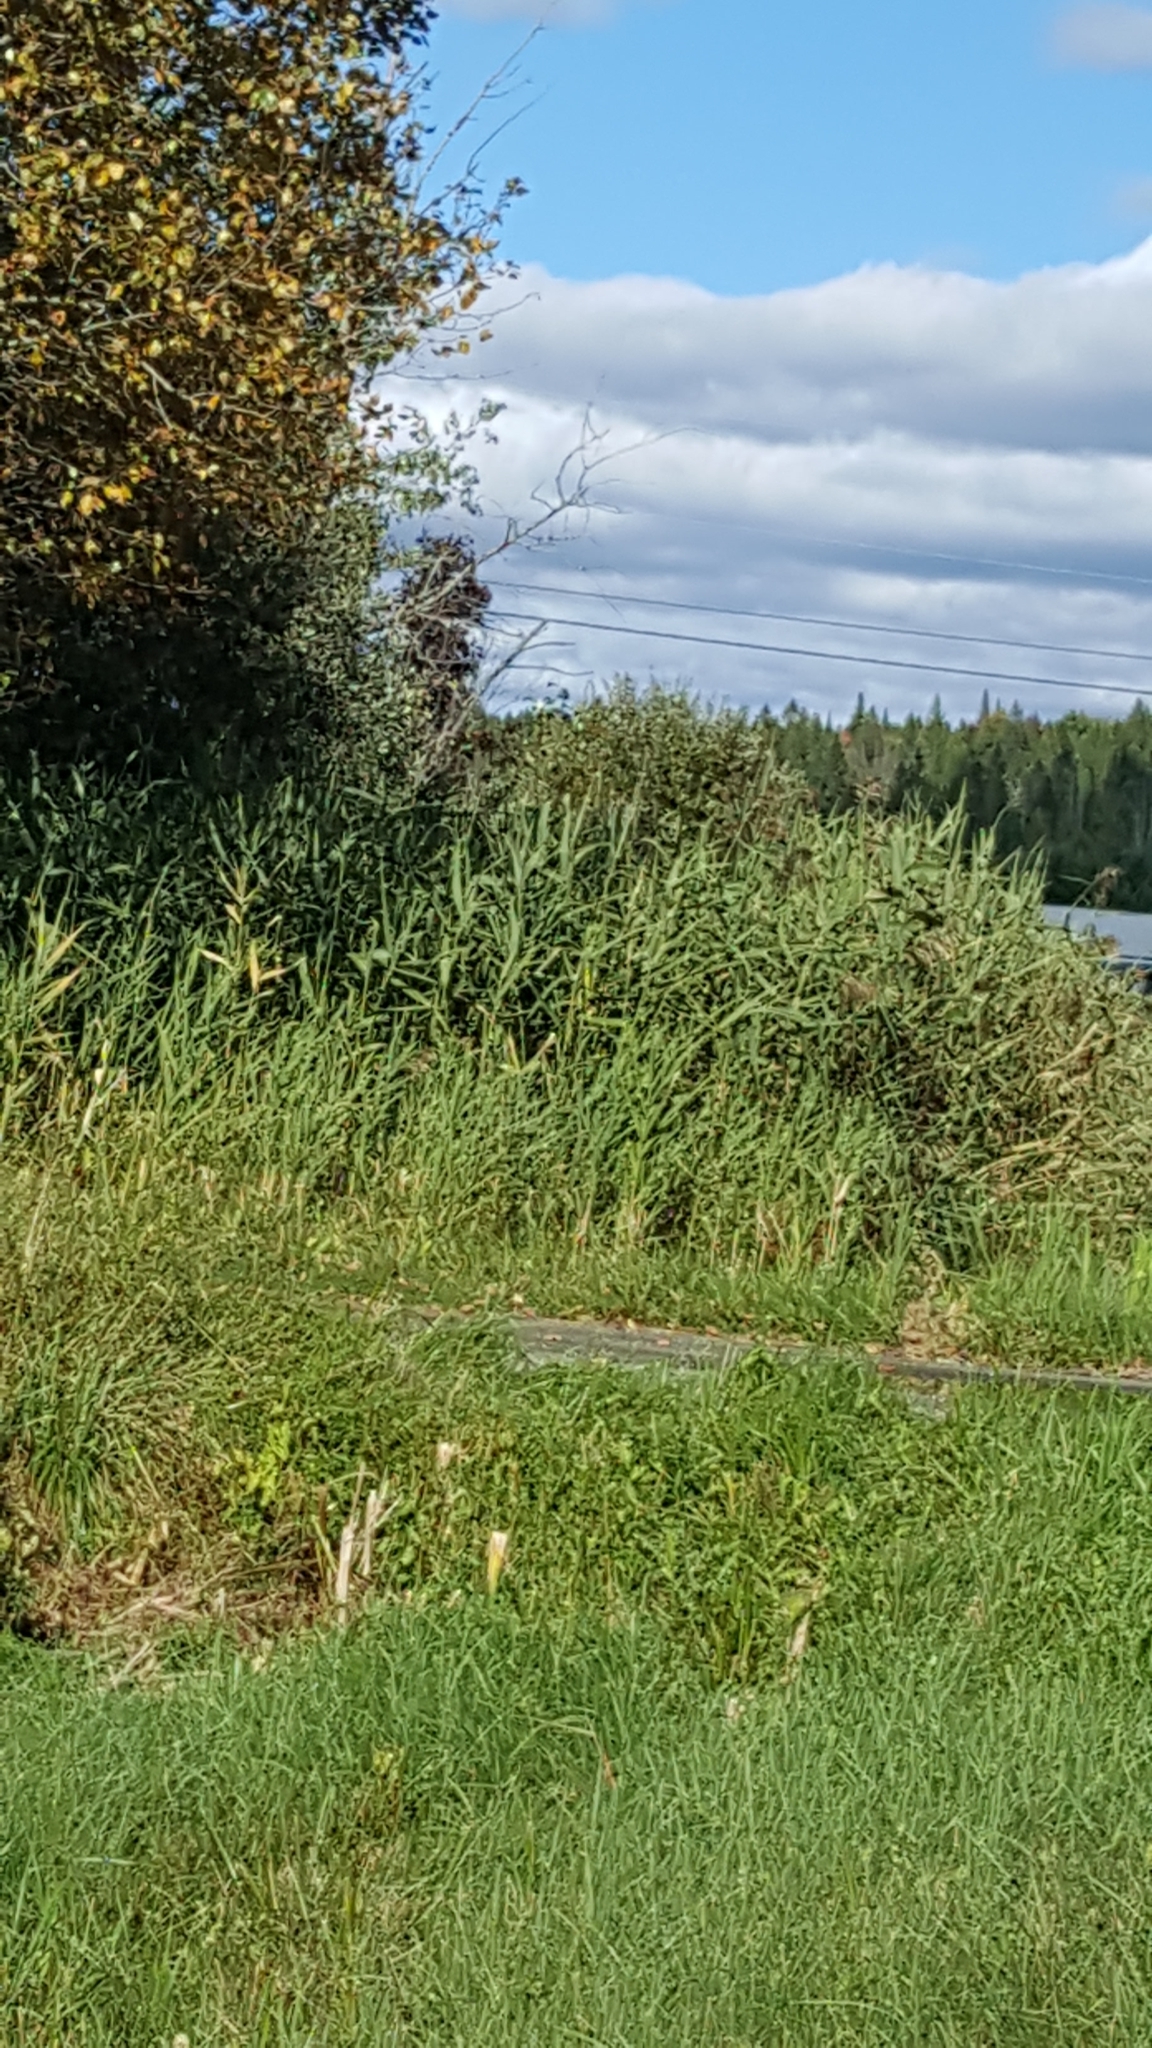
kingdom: Plantae
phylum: Tracheophyta
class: Liliopsida
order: Poales
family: Poaceae
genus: Phragmites
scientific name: Phragmites australis
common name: Common reed
